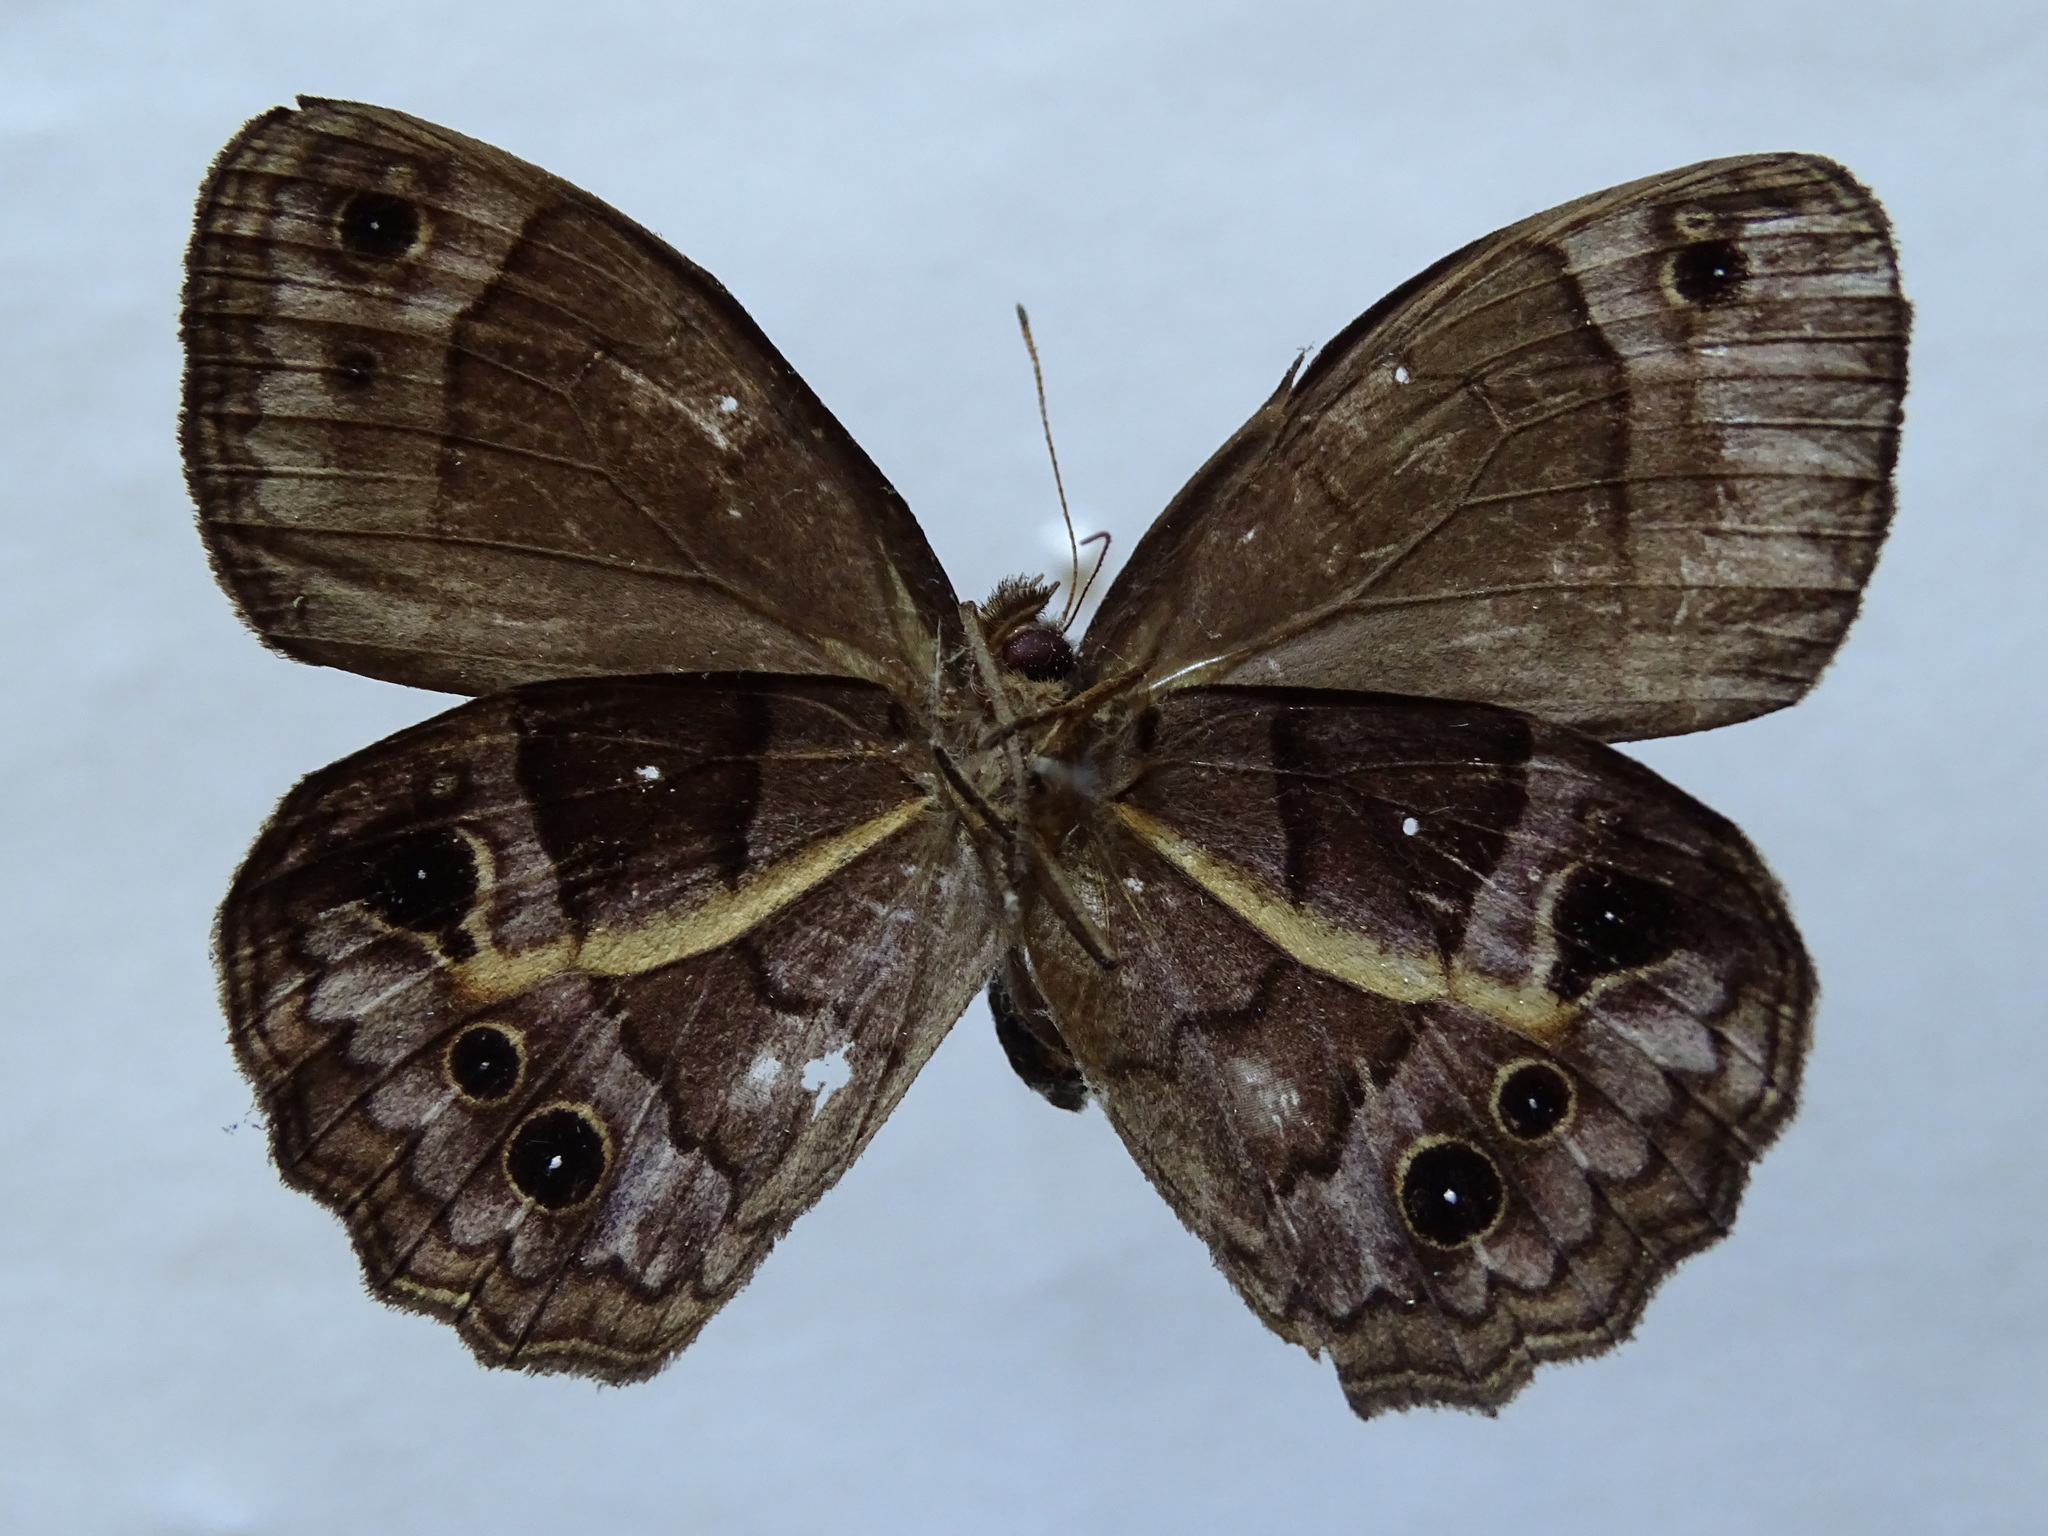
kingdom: Animalia
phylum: Arthropoda
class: Insecta
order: Lepidoptera
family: Nymphalidae
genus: Posttaygetis
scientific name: Posttaygetis penelea
